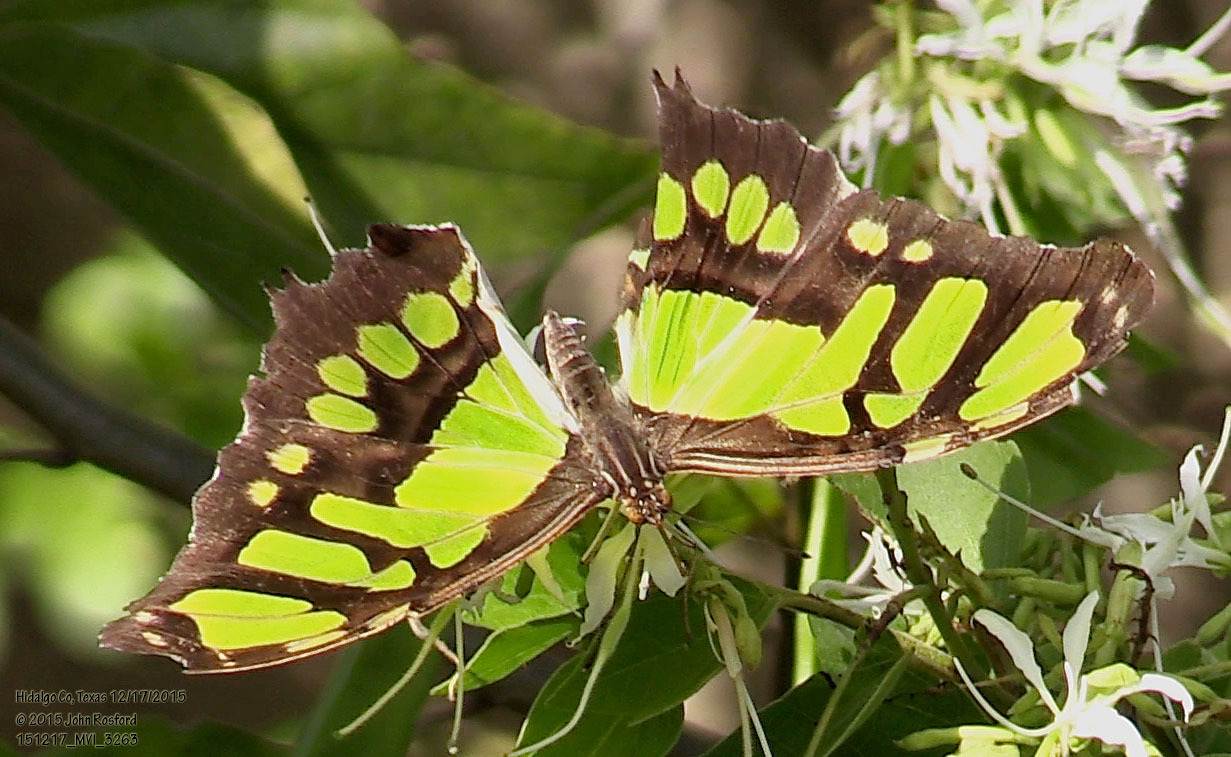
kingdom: Animalia
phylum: Arthropoda
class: Insecta
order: Lepidoptera
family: Nymphalidae
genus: Siproeta
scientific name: Siproeta stelenes
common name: Malachite
